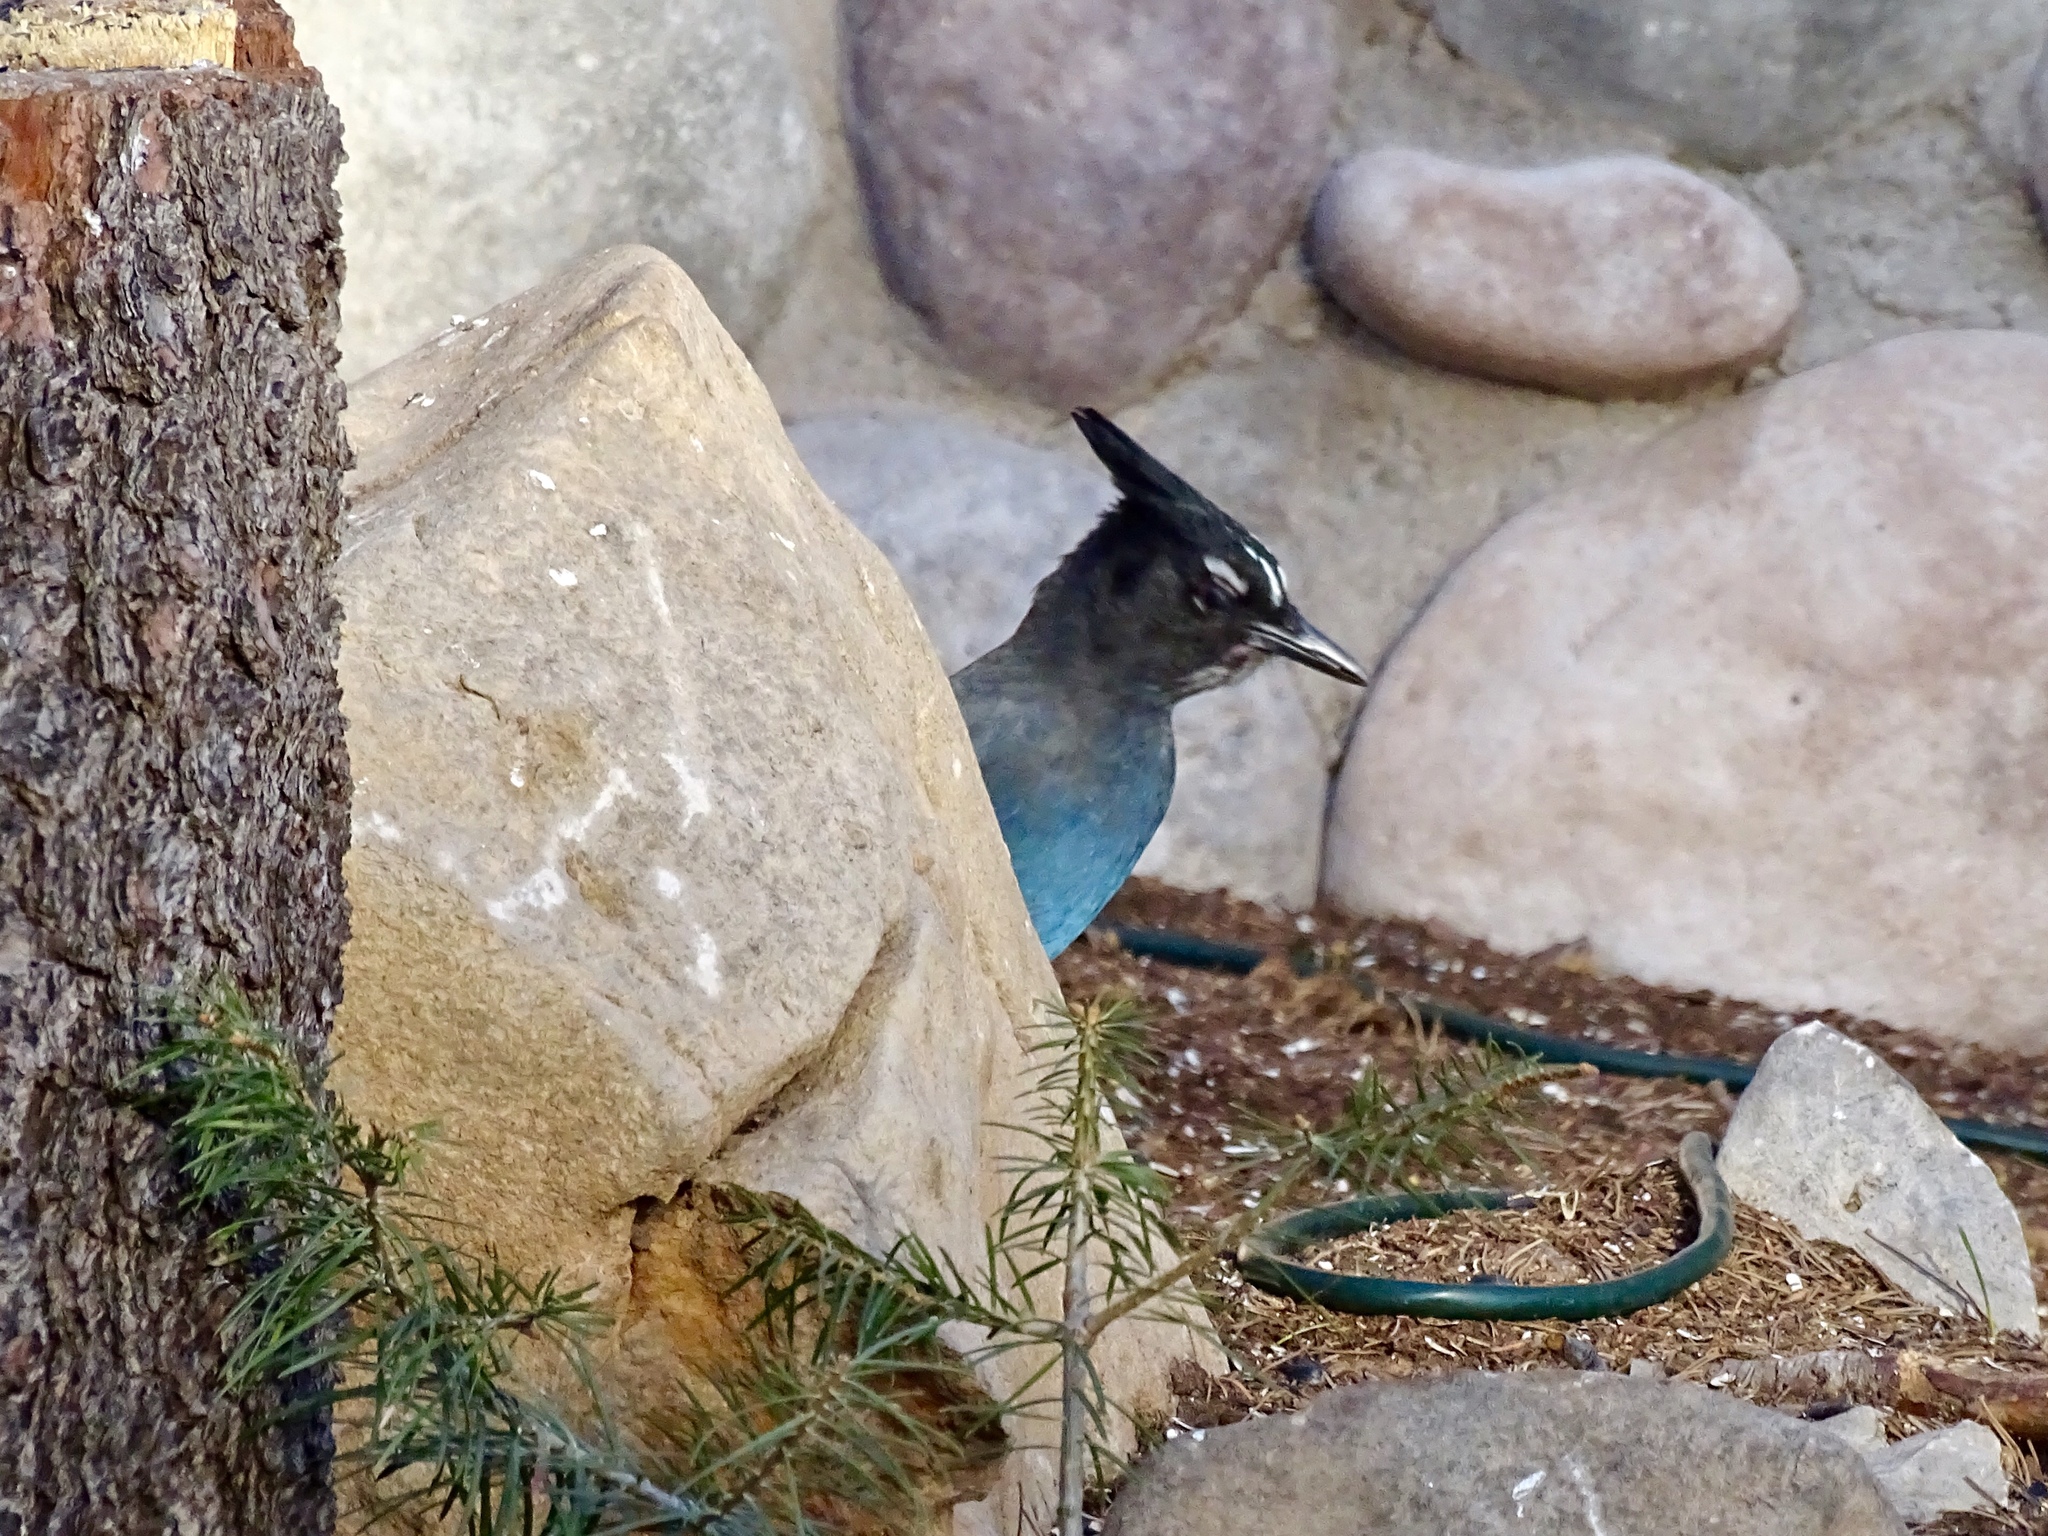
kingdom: Animalia
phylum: Chordata
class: Aves
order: Passeriformes
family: Corvidae
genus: Cyanocitta
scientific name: Cyanocitta stelleri
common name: Steller's jay
